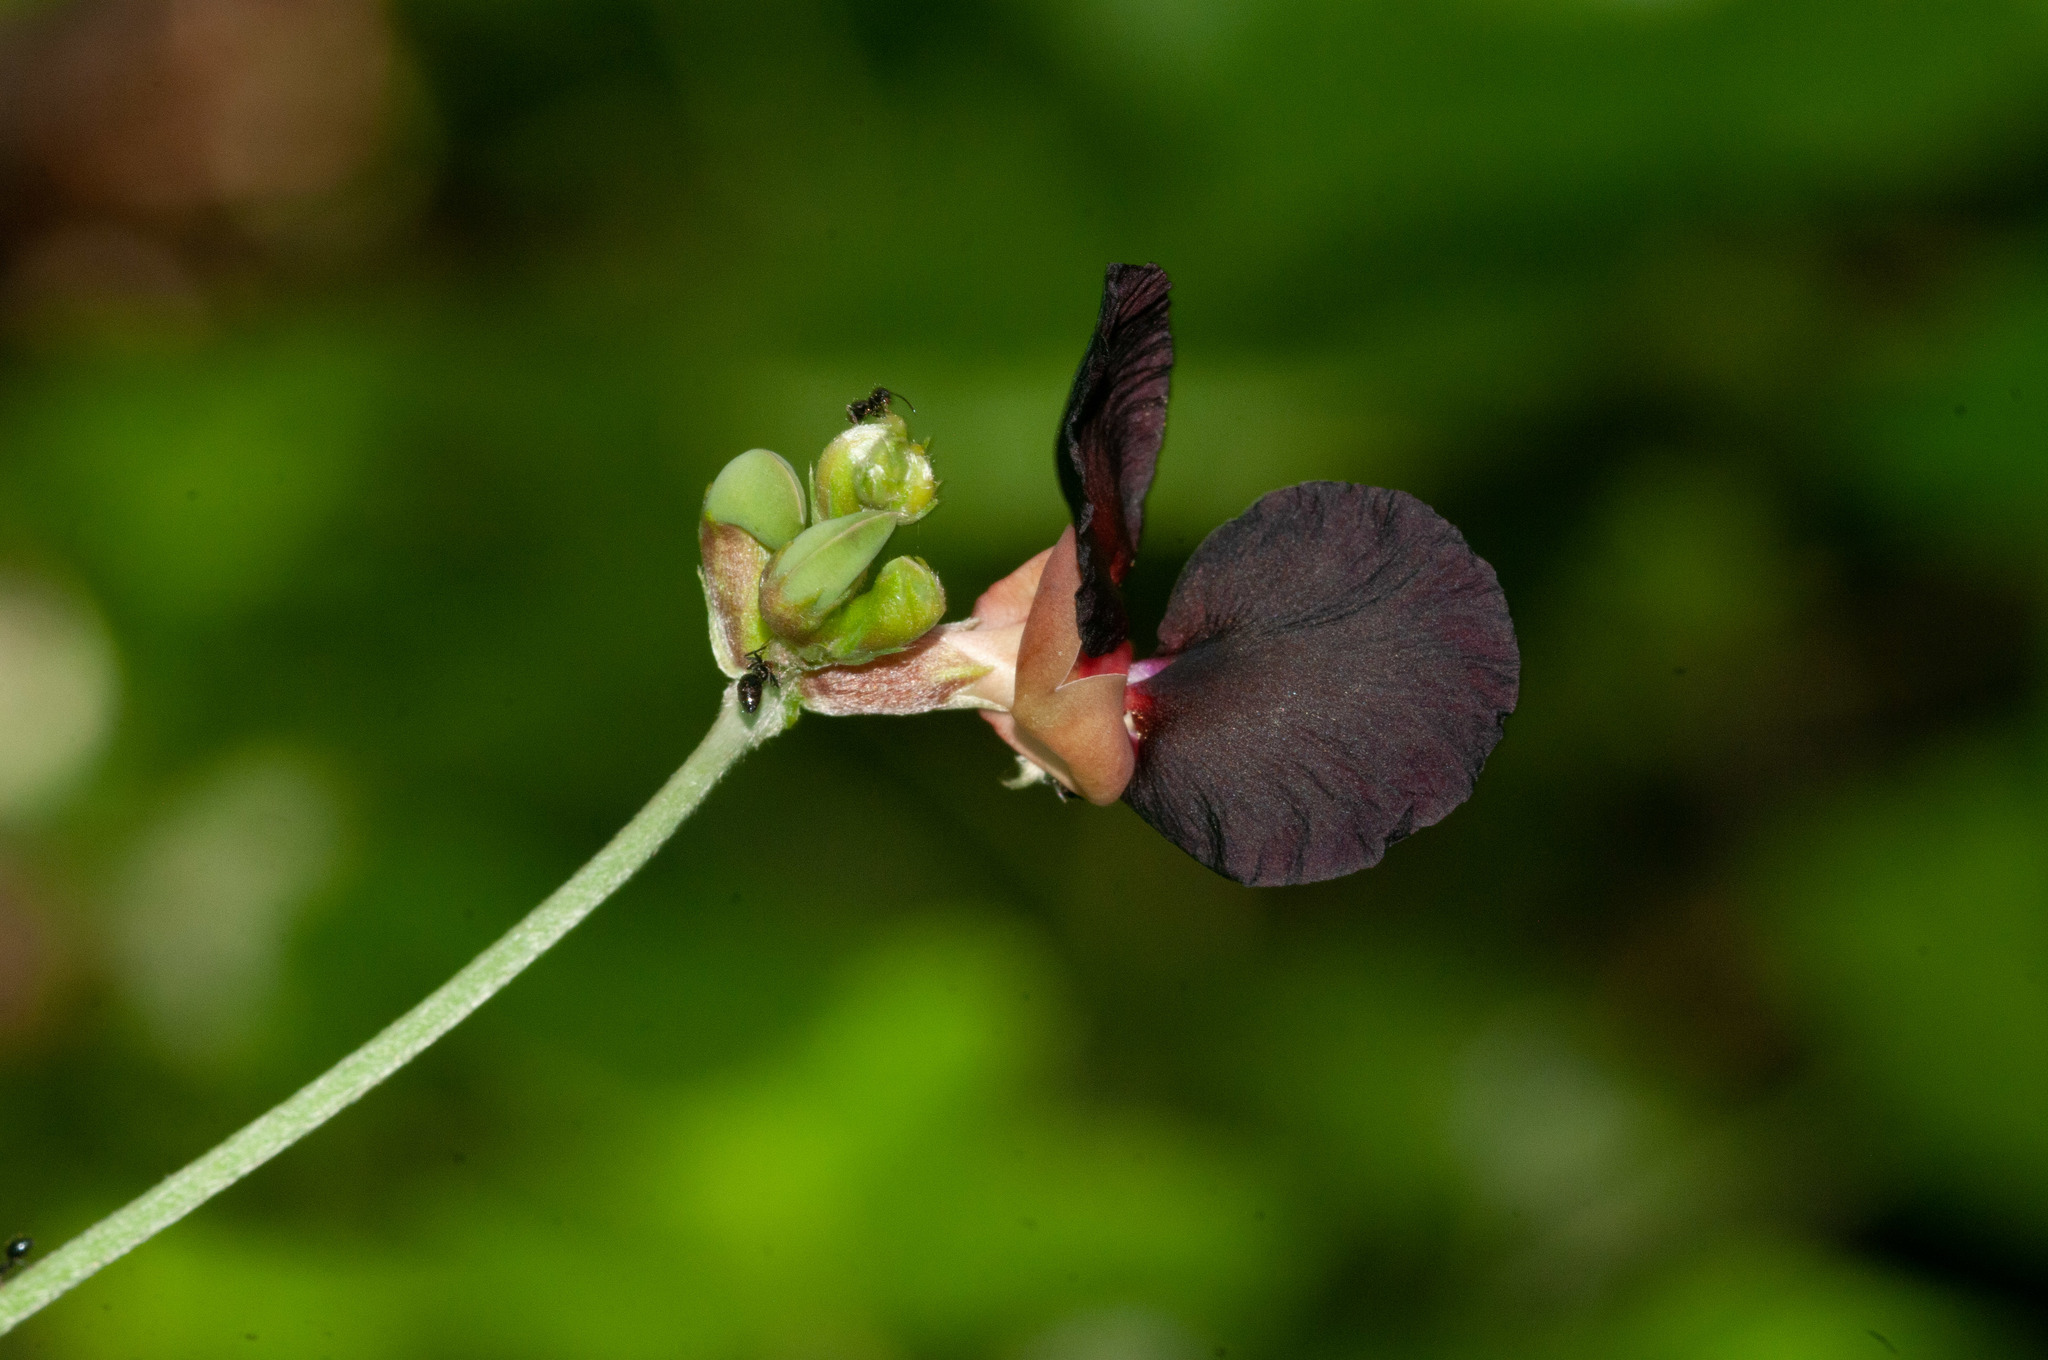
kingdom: Plantae
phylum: Tracheophyta
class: Magnoliopsida
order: Fabales
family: Fabaceae
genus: Macroptilium
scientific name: Macroptilium atropurpureum
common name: Purple bushbean
